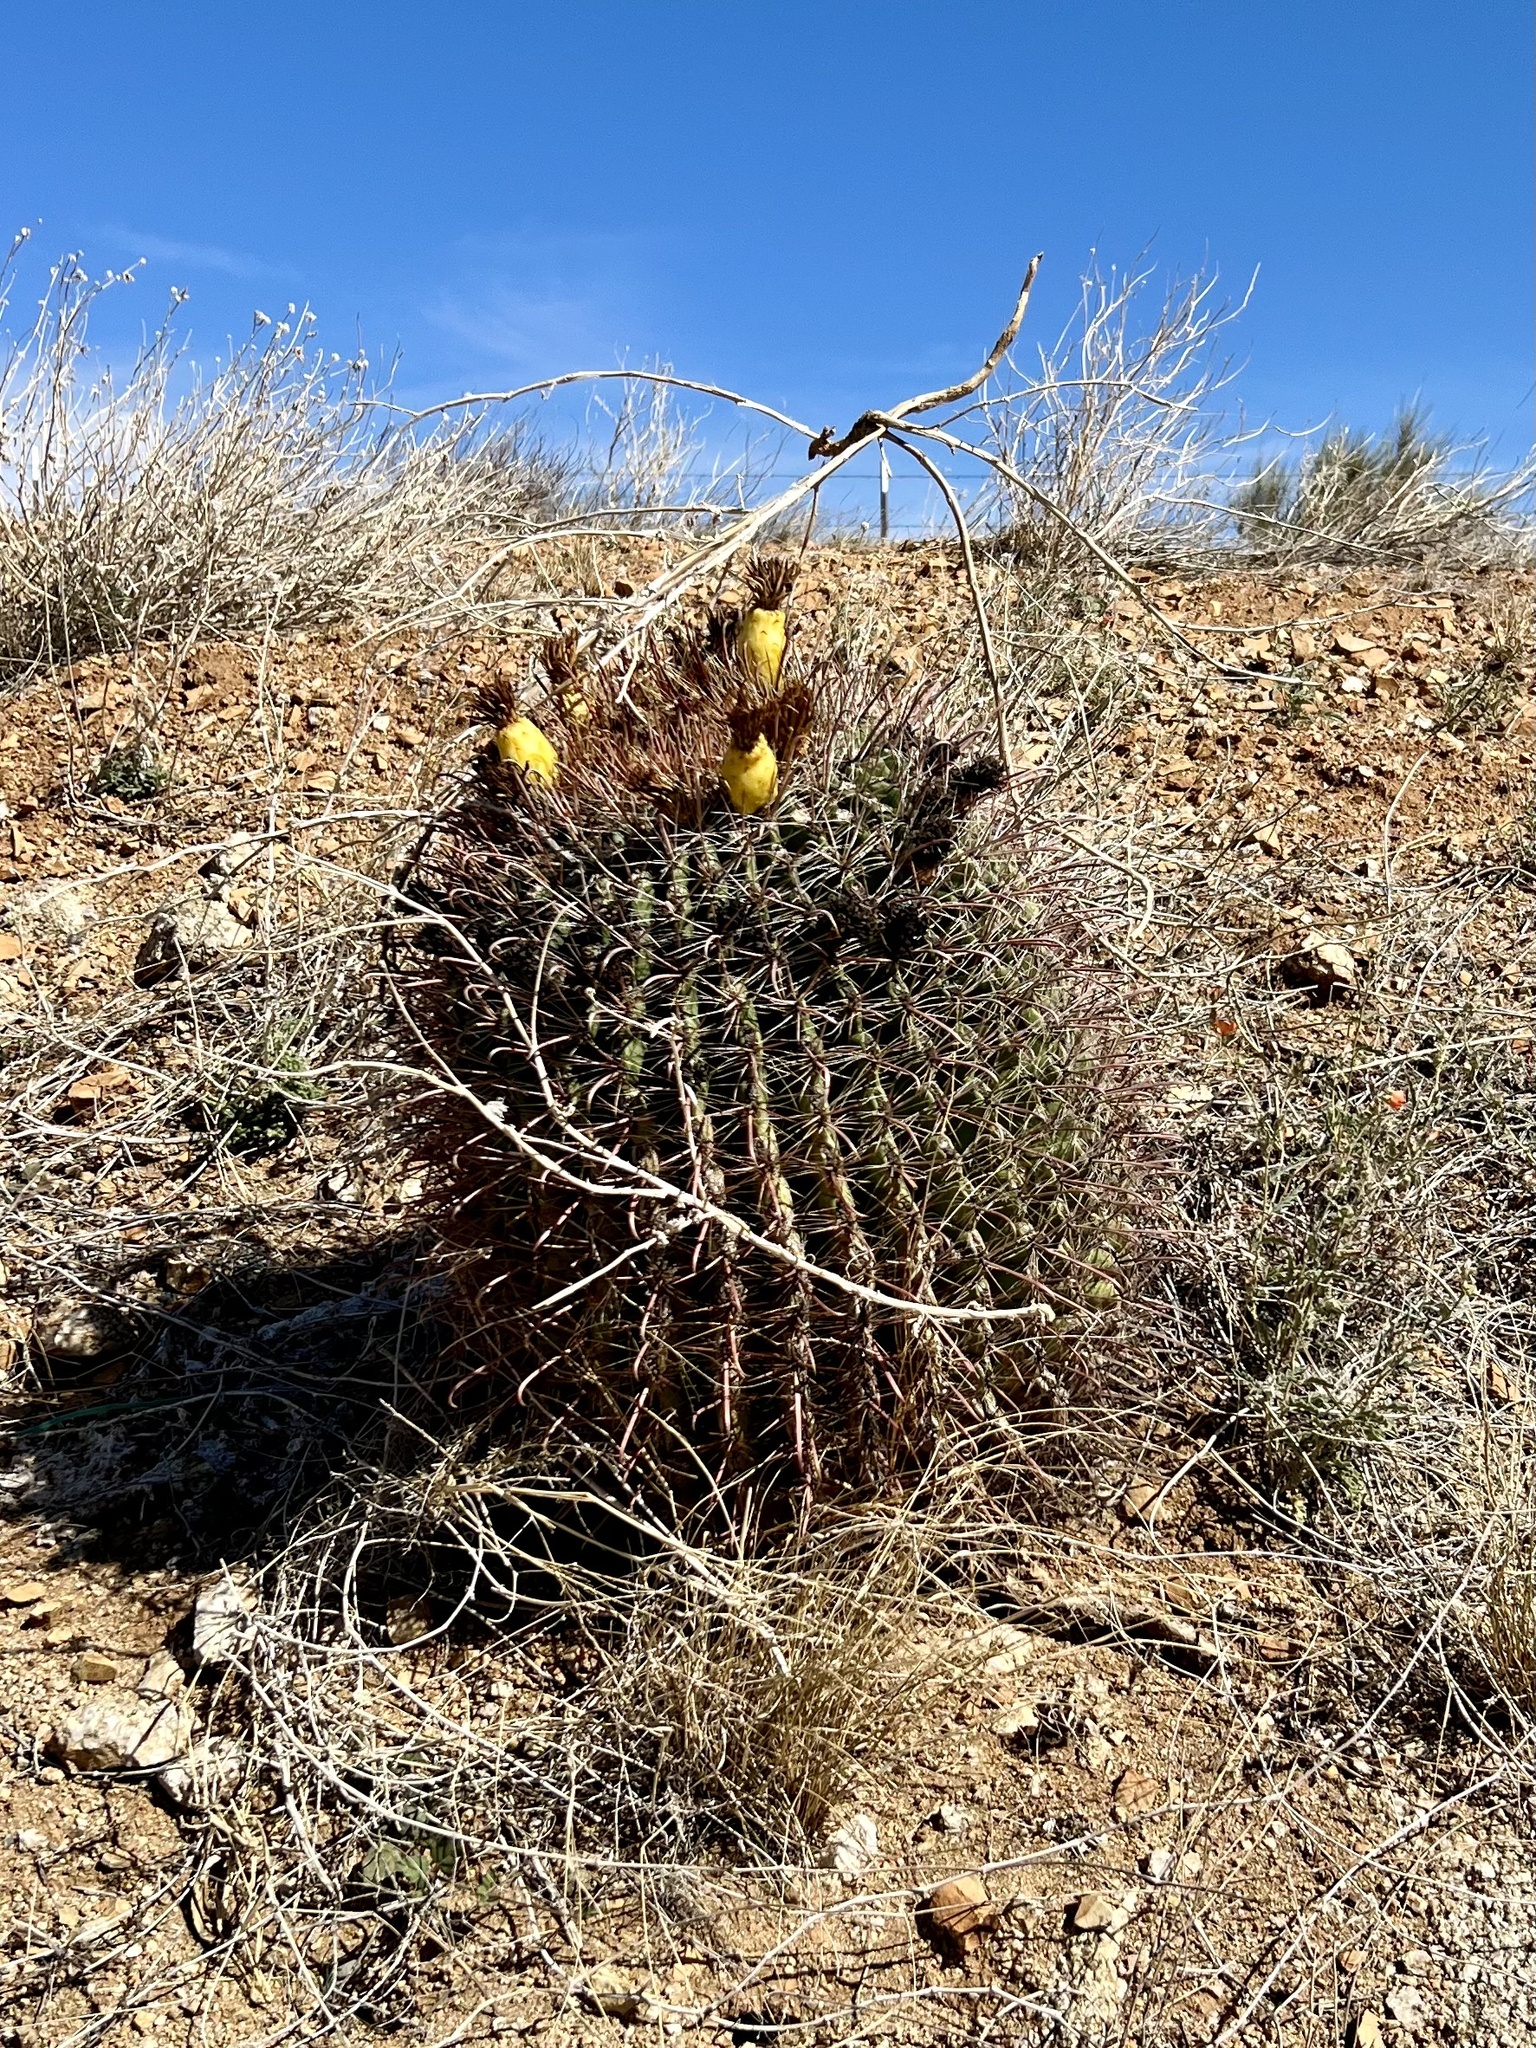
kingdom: Plantae
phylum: Tracheophyta
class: Magnoliopsida
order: Caryophyllales
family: Cactaceae
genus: Ferocactus
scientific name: Ferocactus wislizeni
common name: Candy barrel cactus
